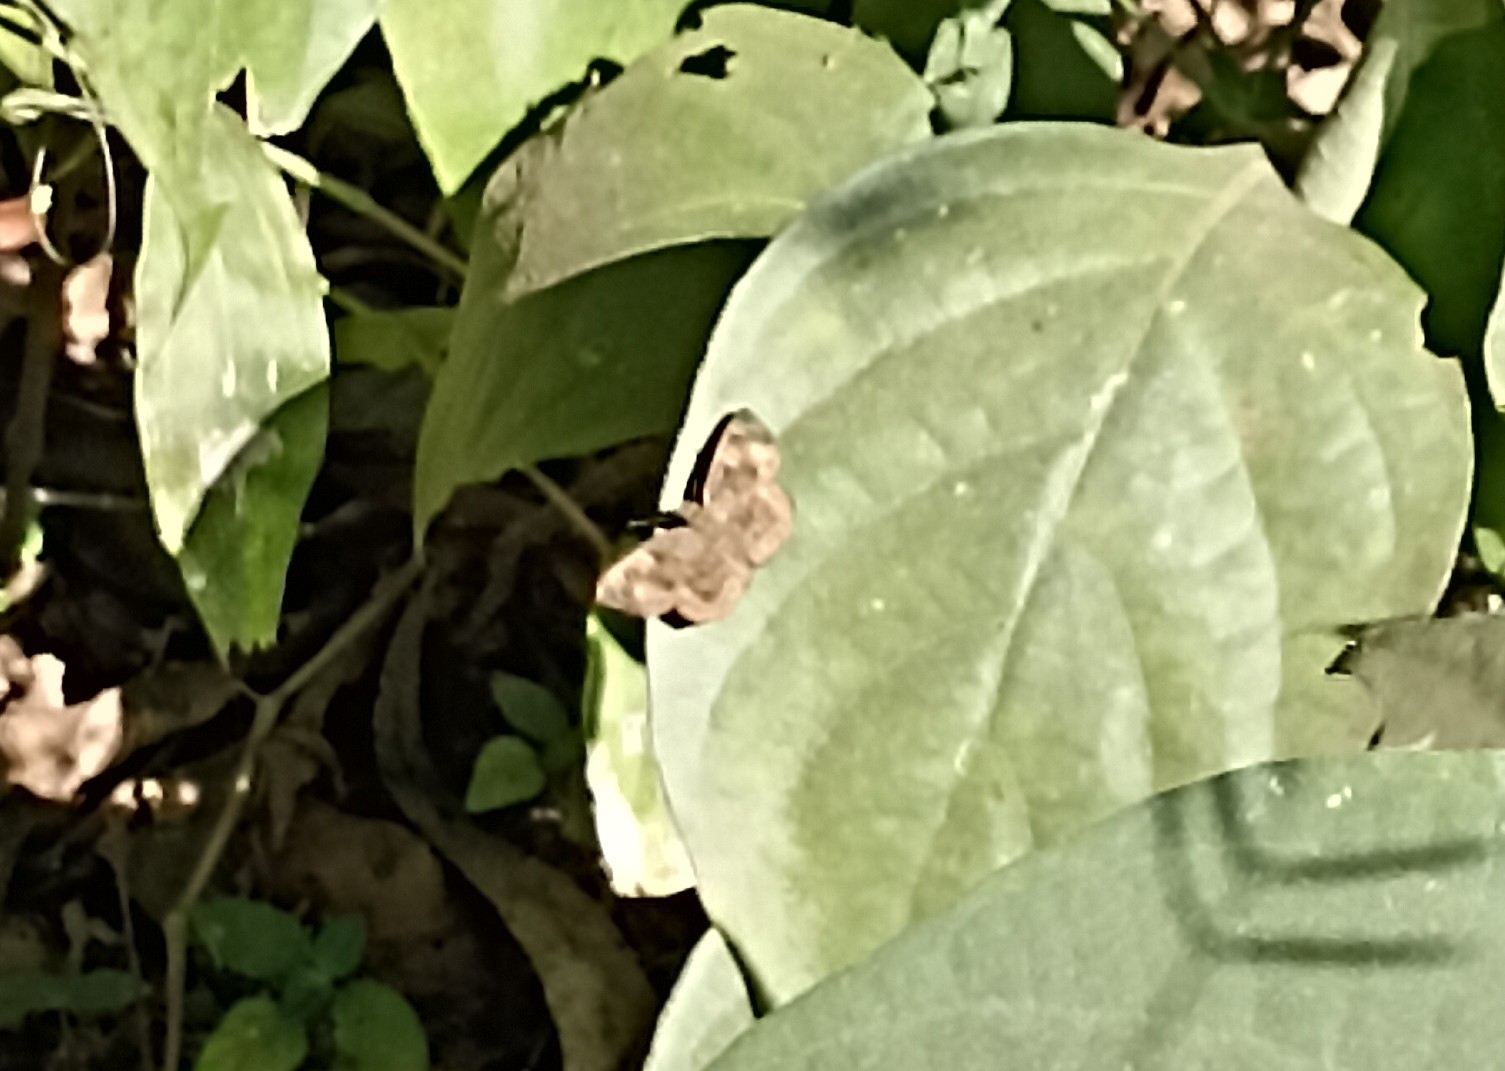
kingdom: Animalia
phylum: Arthropoda
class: Insecta
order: Lepidoptera
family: Hesperiidae
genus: Sarangesa
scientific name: Sarangesa dasahara
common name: Common small flat
